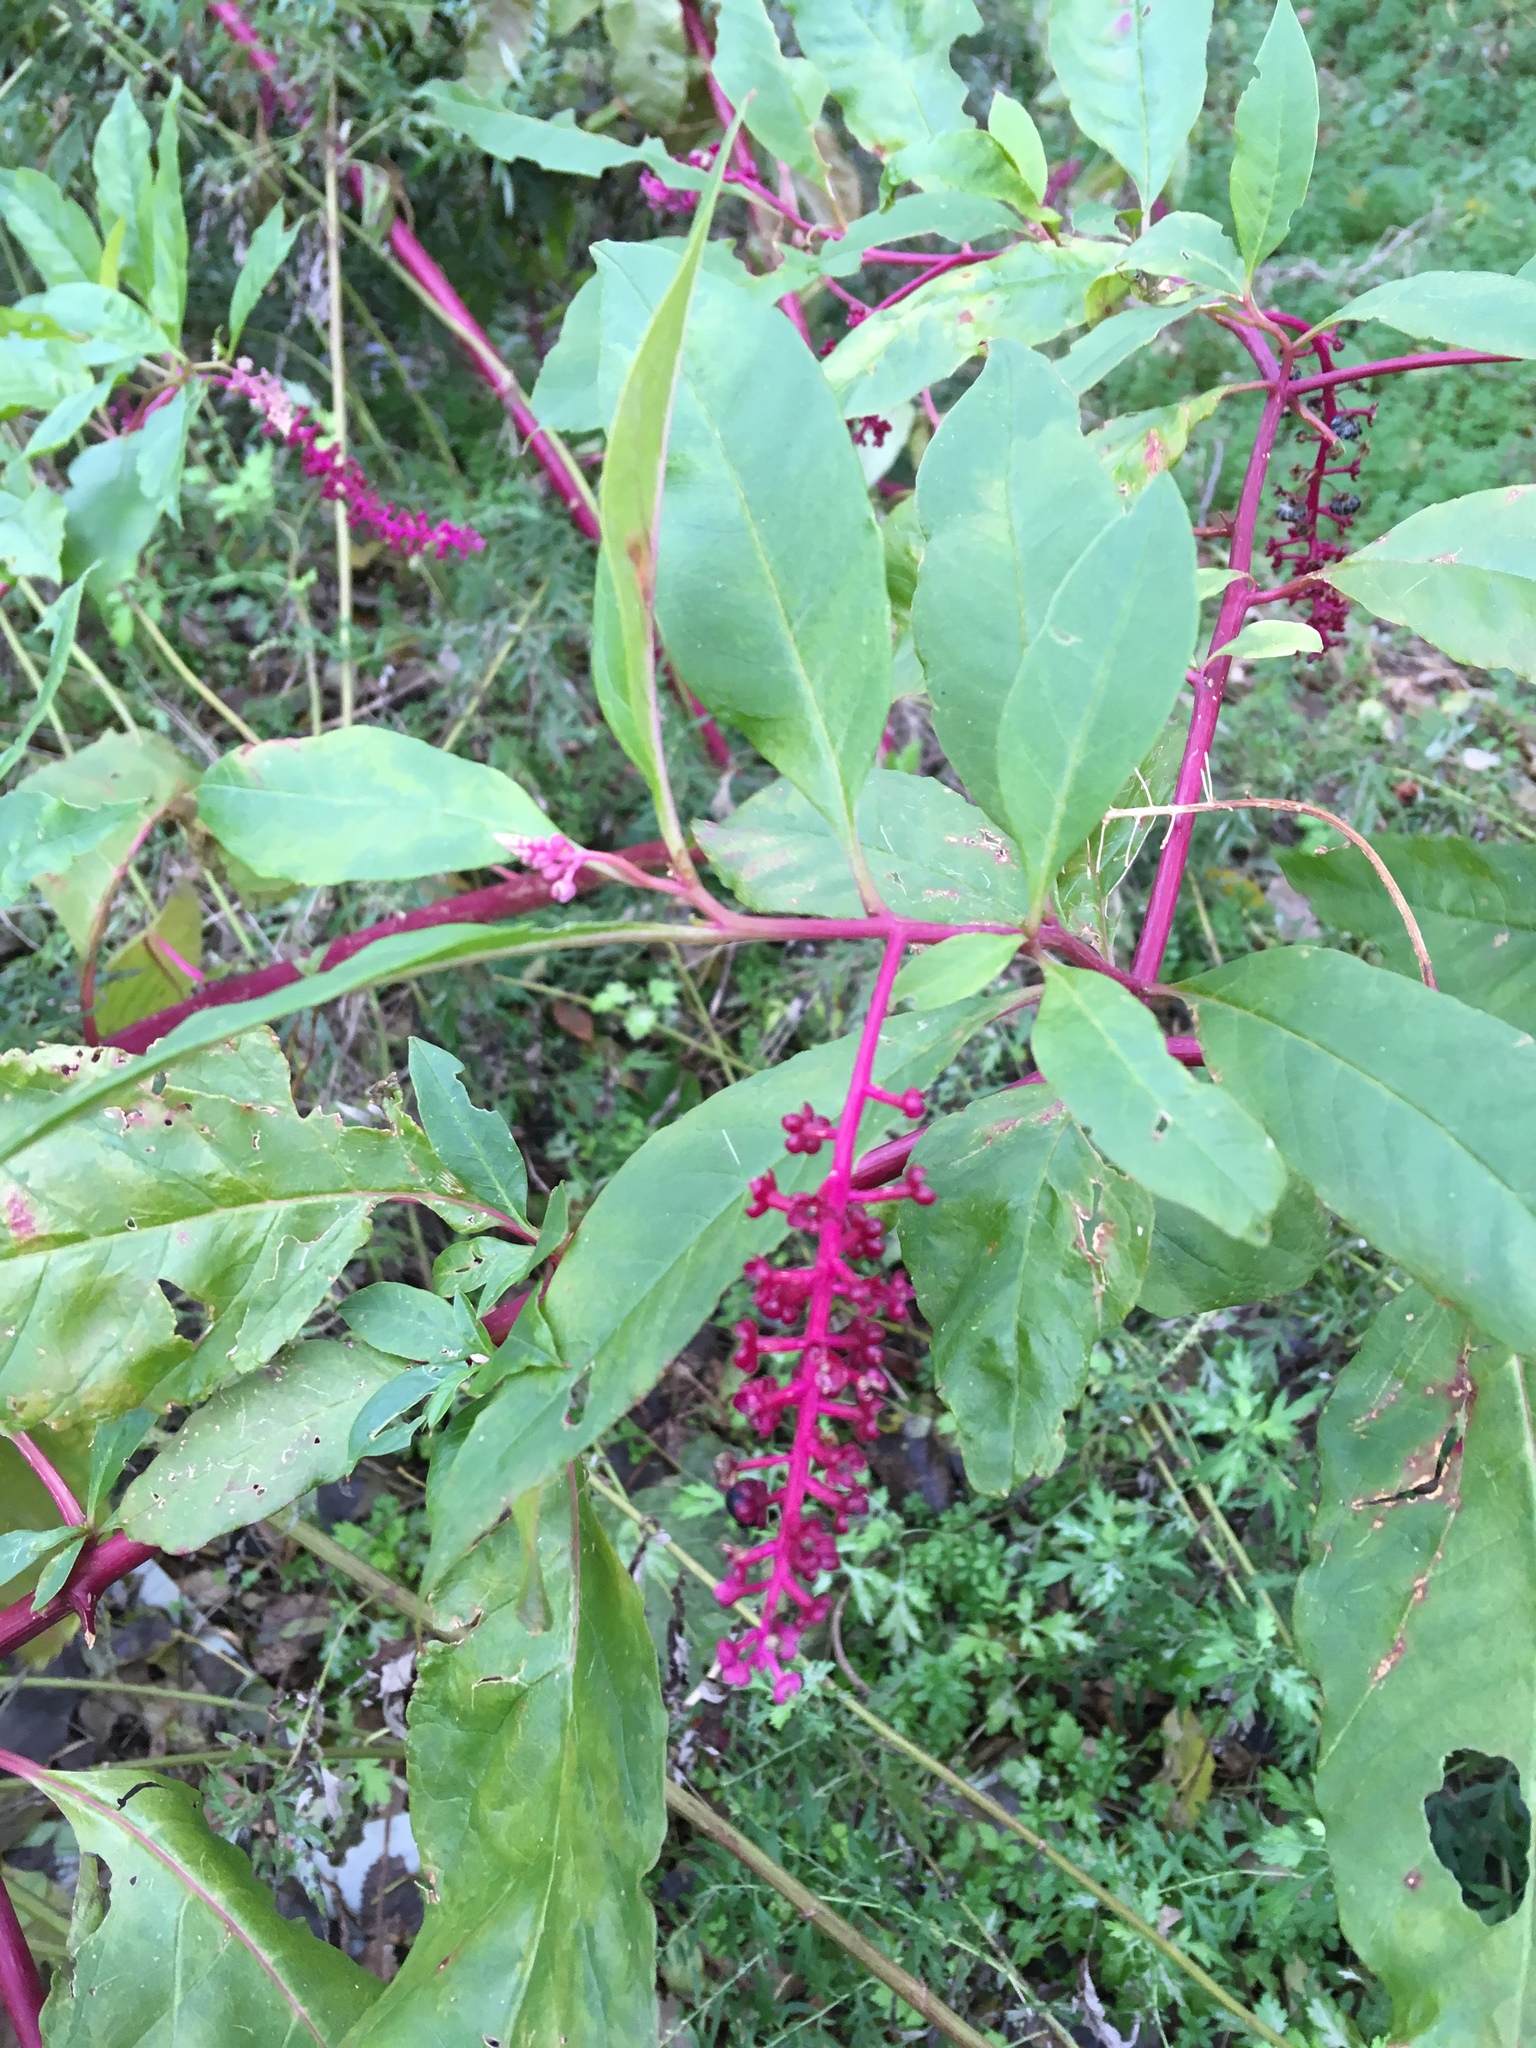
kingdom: Plantae
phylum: Tracheophyta
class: Magnoliopsida
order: Caryophyllales
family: Phytolaccaceae
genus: Phytolacca
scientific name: Phytolacca americana
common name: American pokeweed
